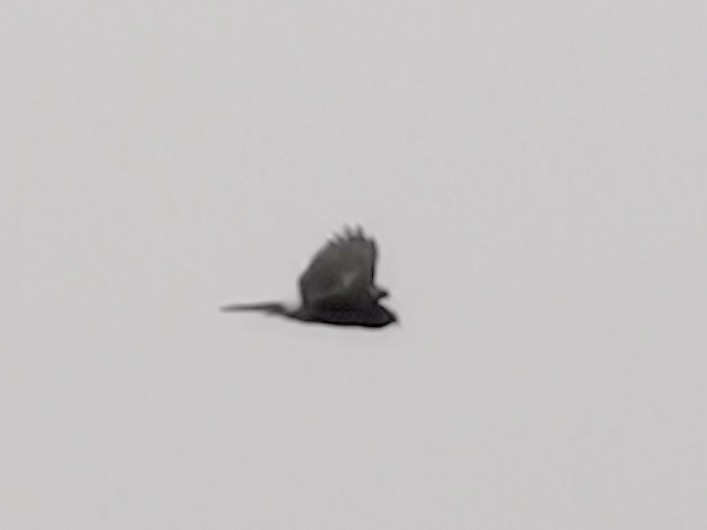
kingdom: Animalia
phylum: Chordata
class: Aves
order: Accipitriformes
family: Accipitridae
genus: Circus
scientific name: Circus cyaneus
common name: Hen harrier
